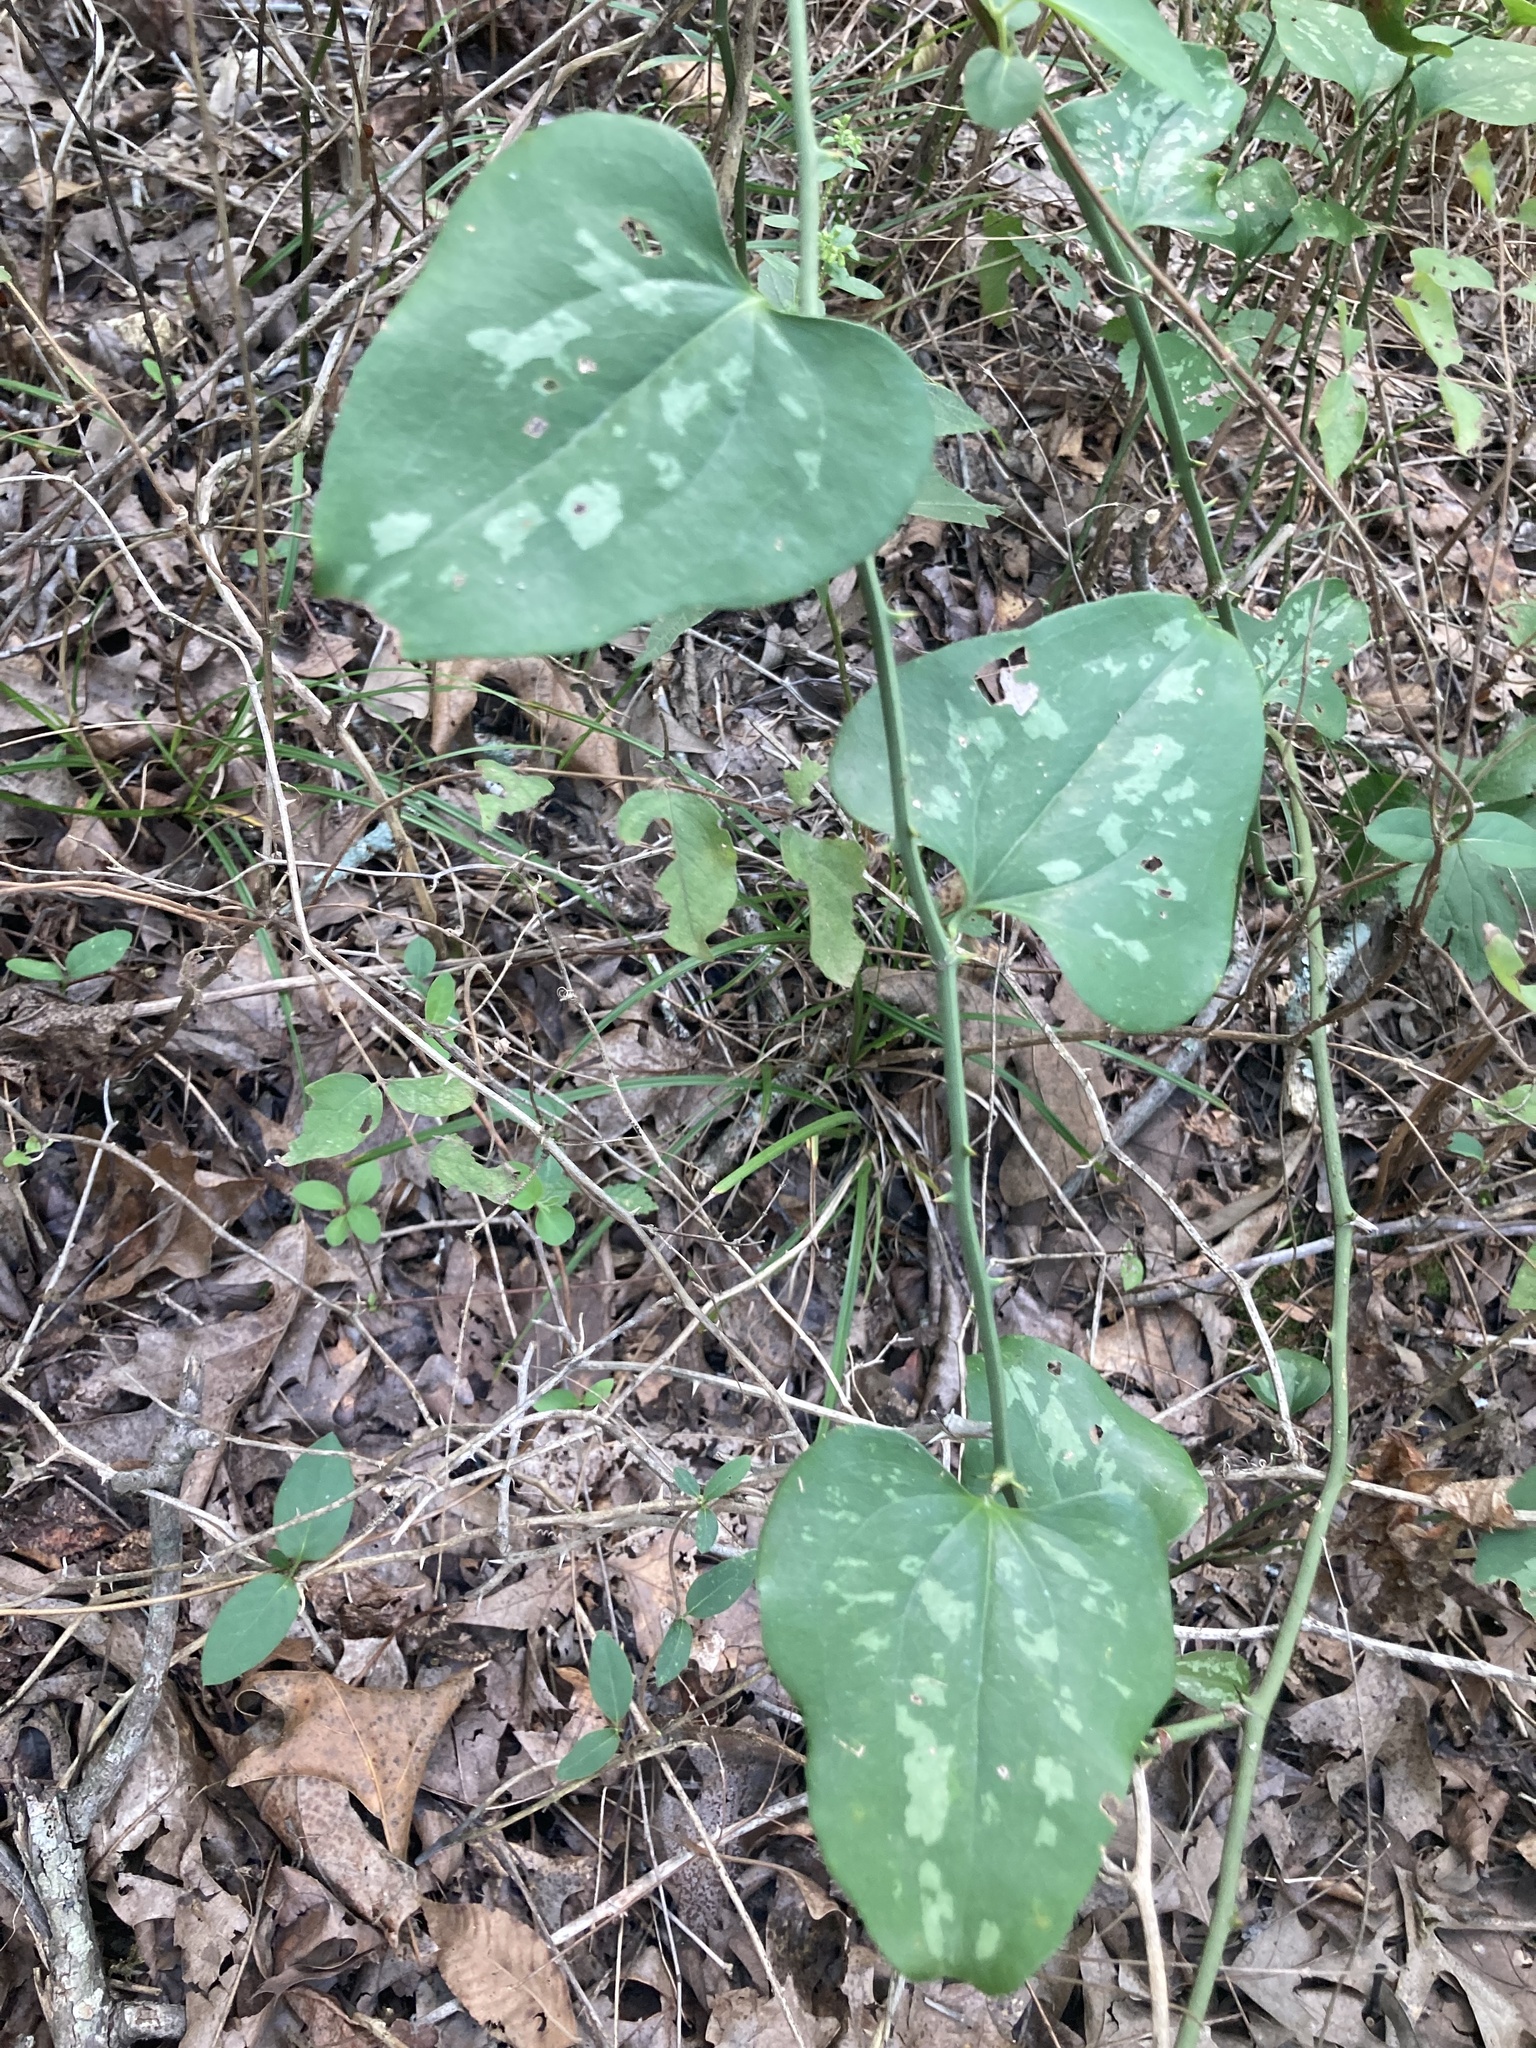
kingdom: Plantae
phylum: Tracheophyta
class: Liliopsida
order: Liliales
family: Smilacaceae
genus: Smilax
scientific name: Smilax bona-nox
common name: Catbrier
